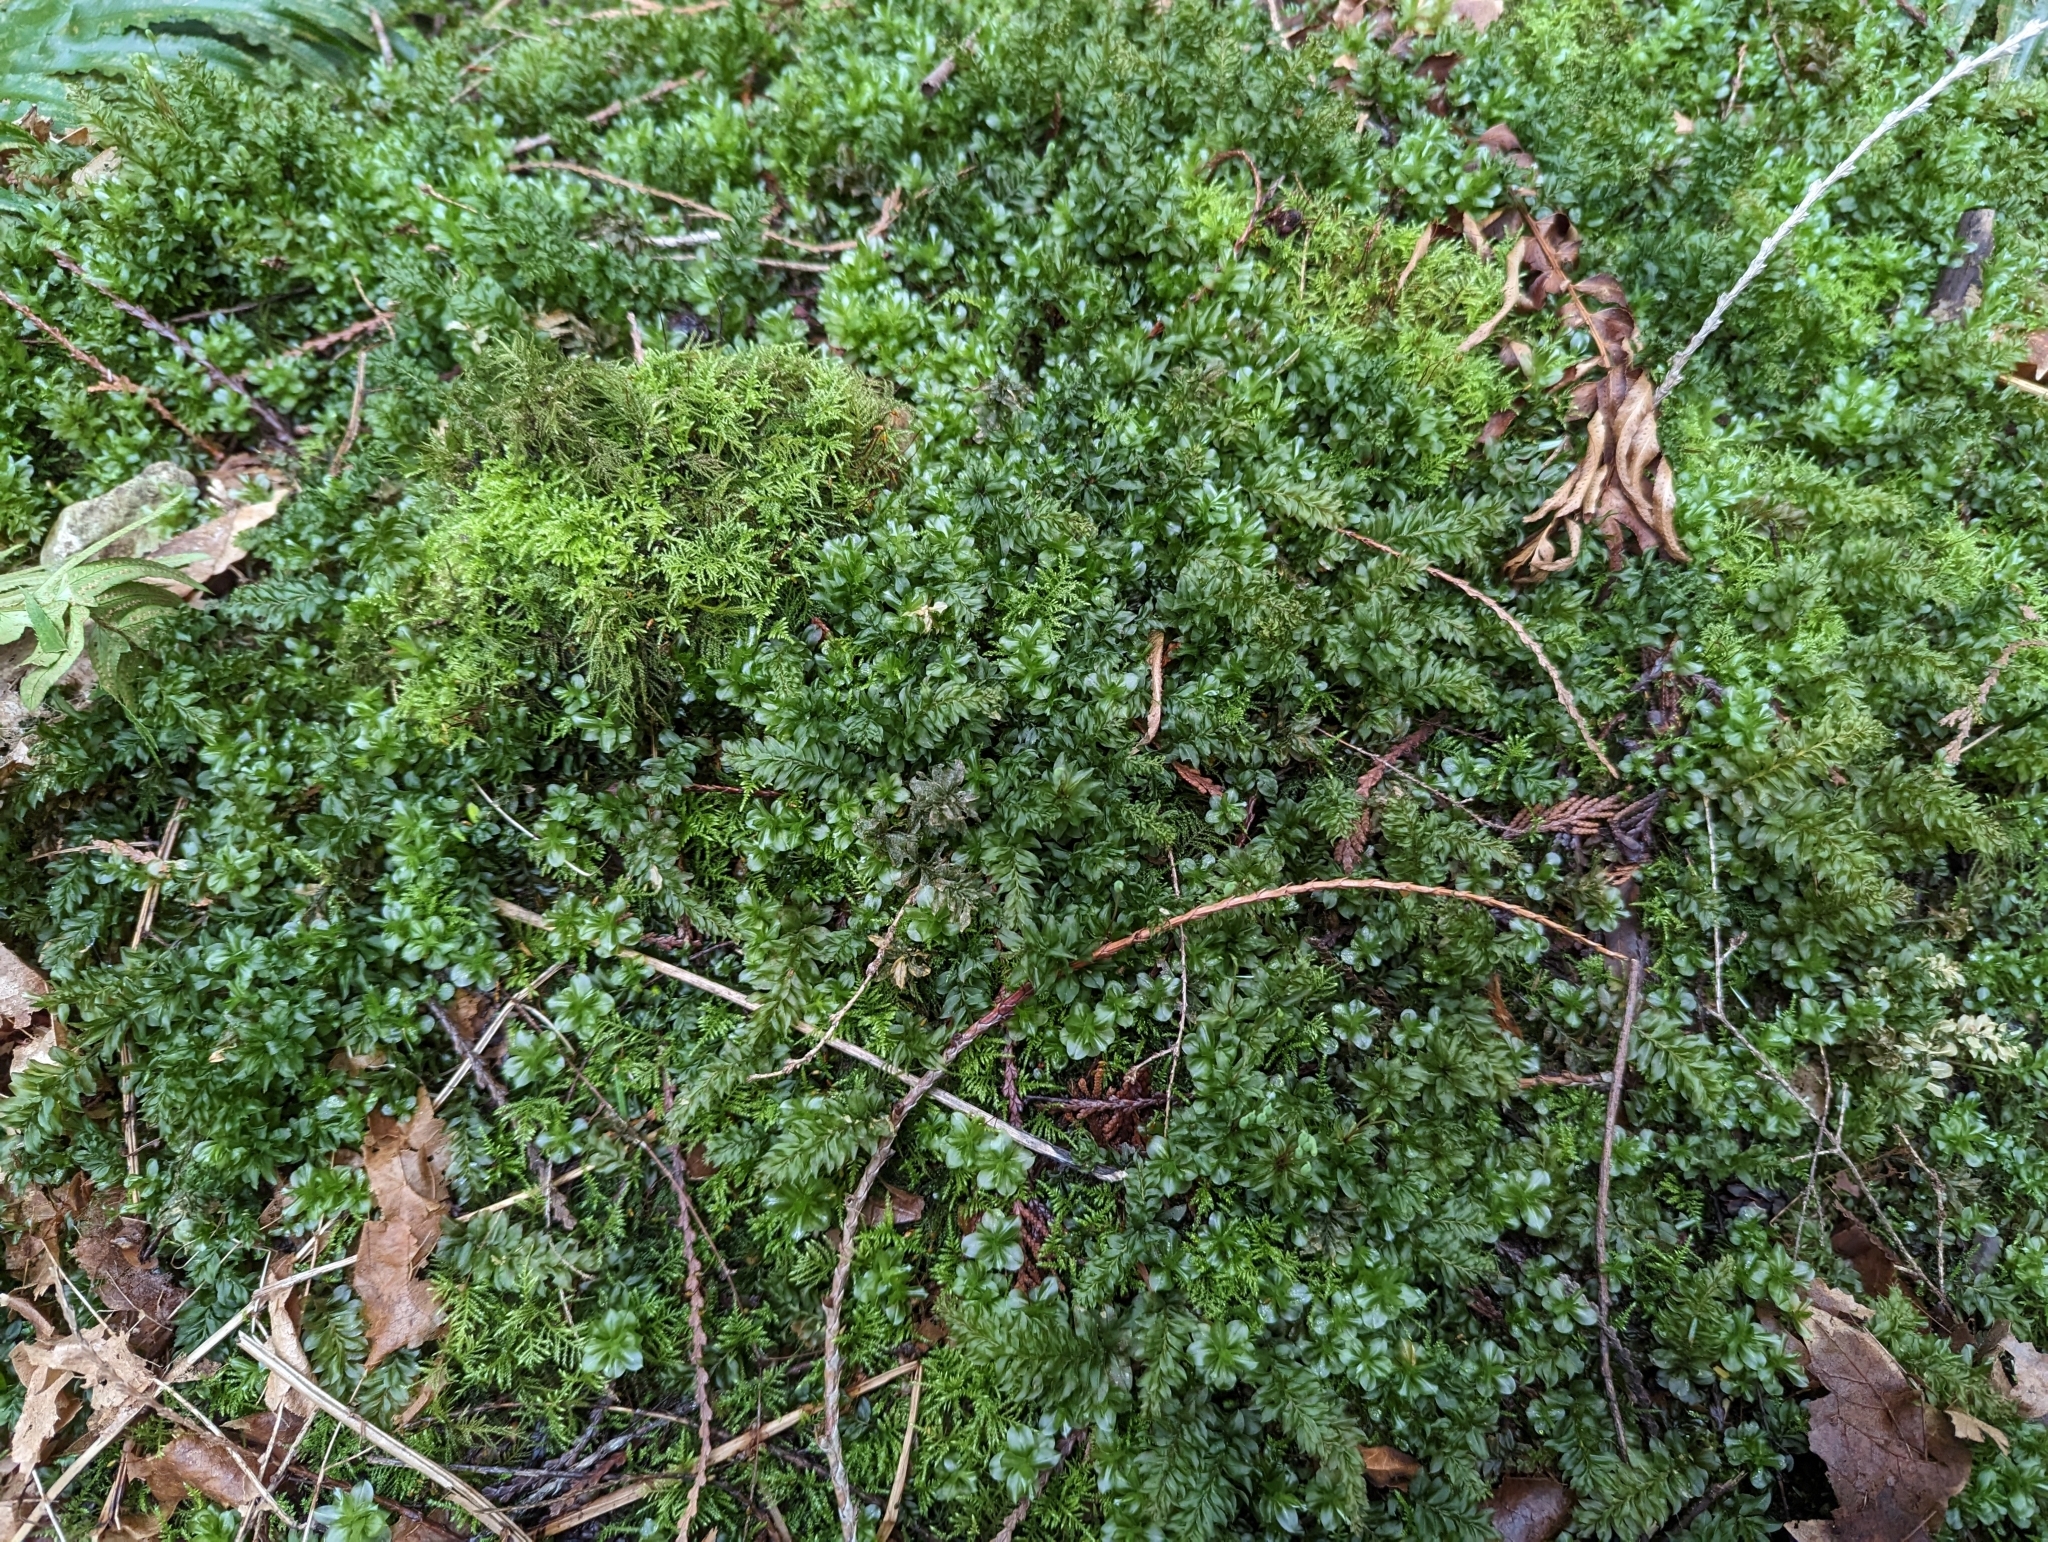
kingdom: Plantae
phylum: Bryophyta
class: Bryopsida
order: Bryales
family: Mniaceae
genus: Plagiomnium
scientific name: Plagiomnium insigne
